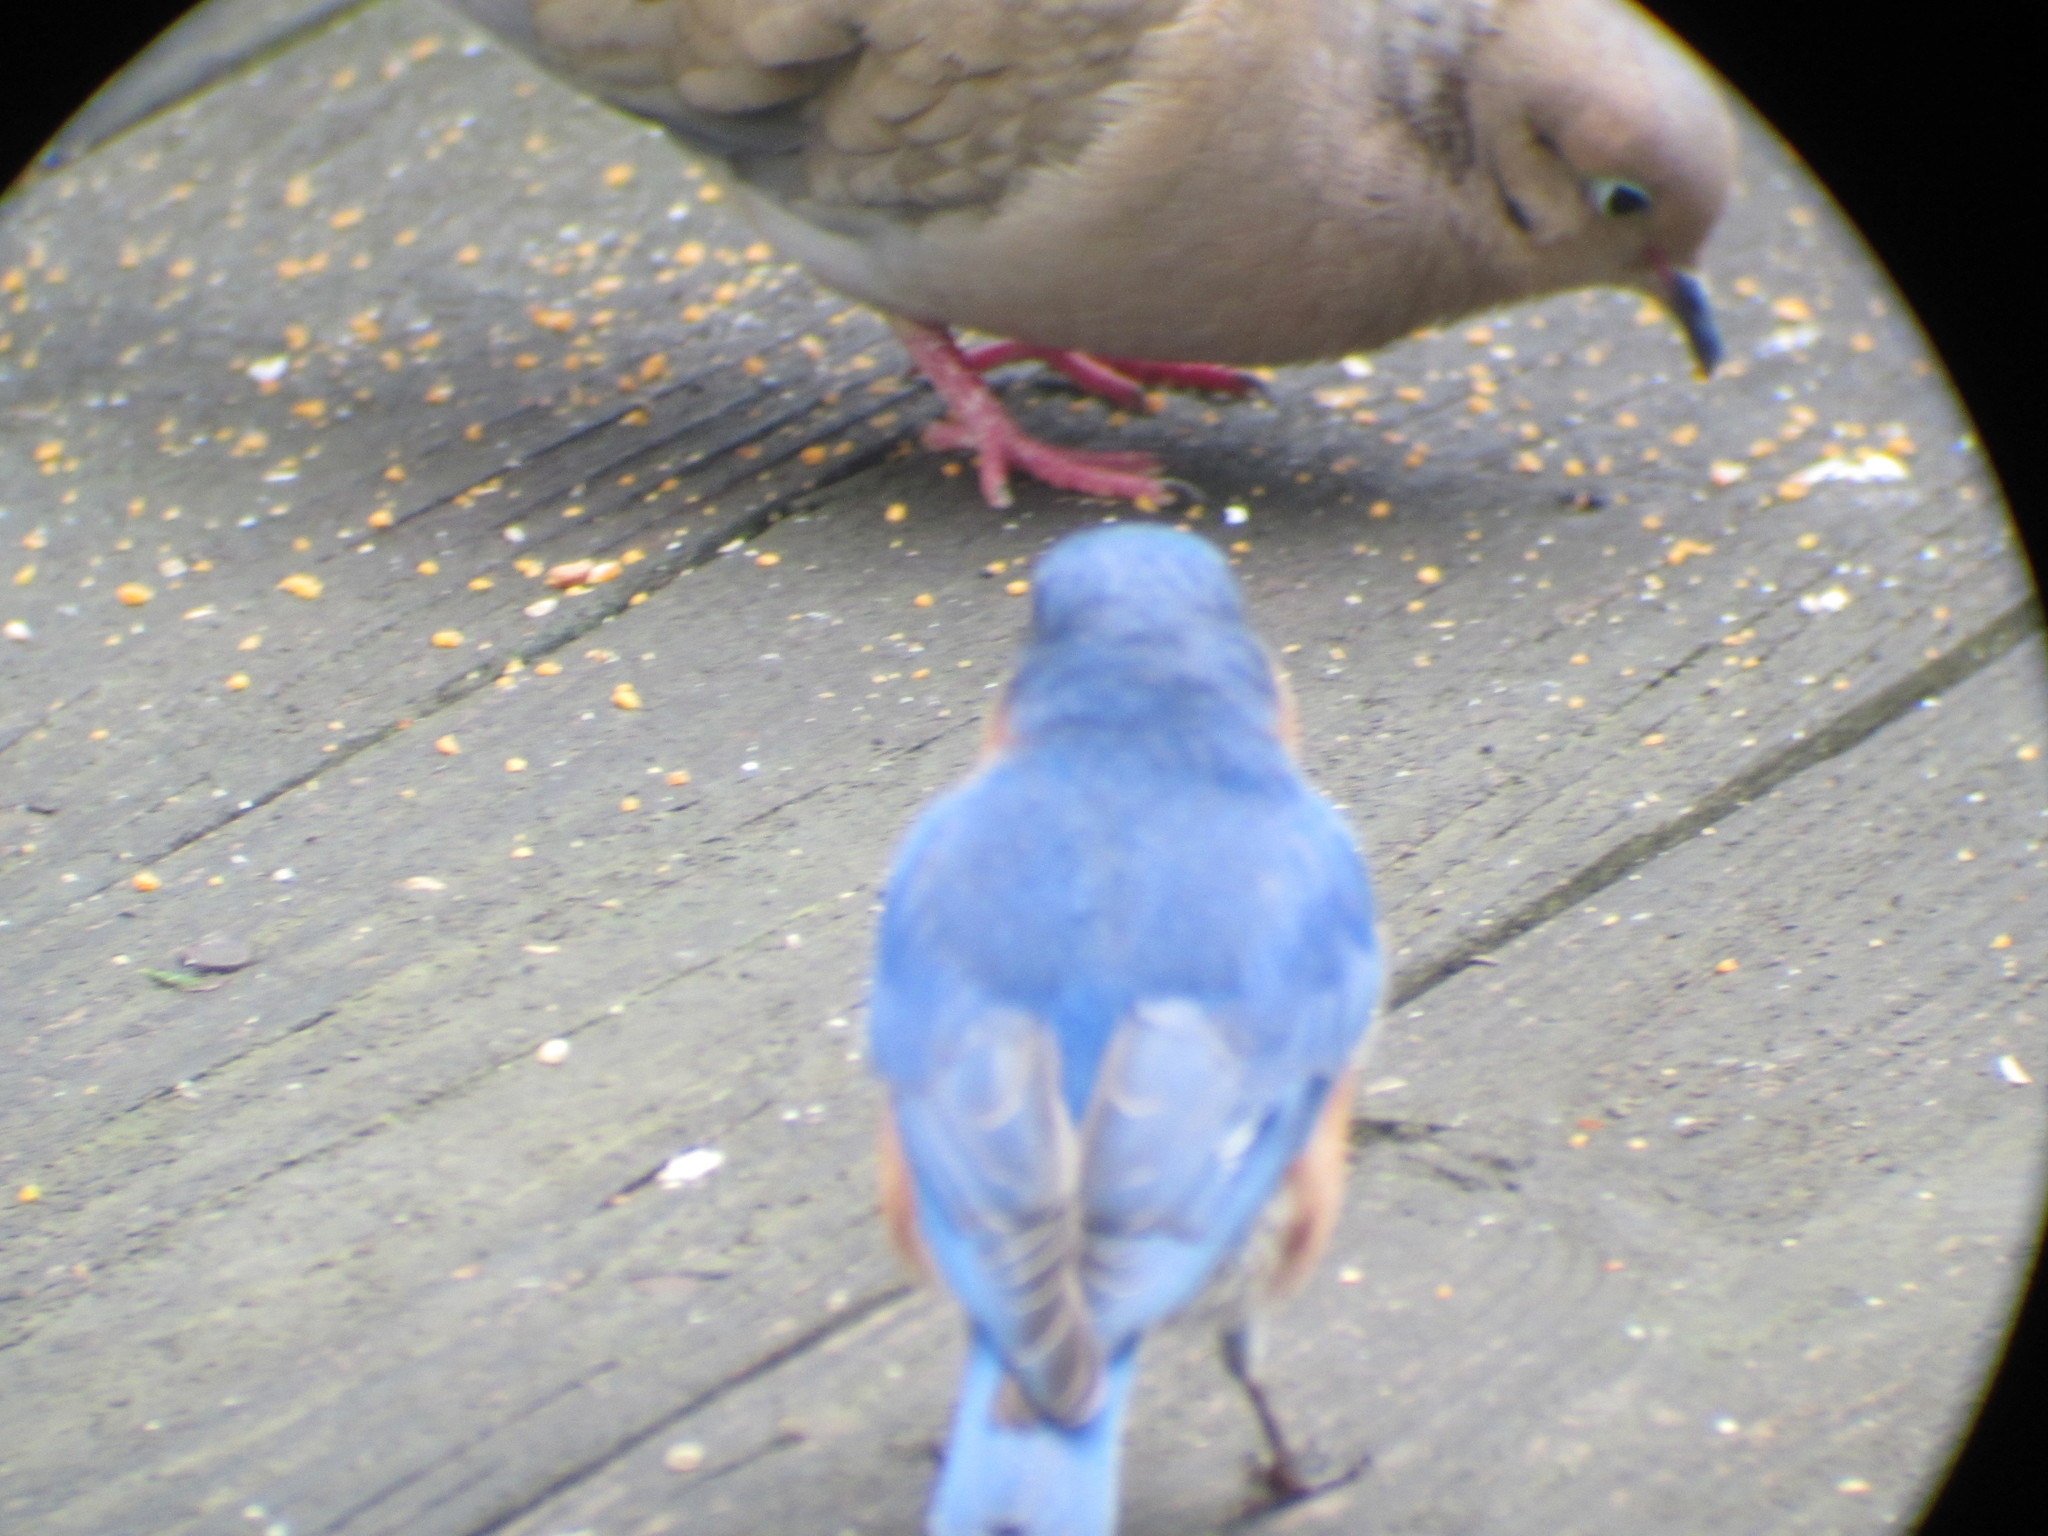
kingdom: Animalia
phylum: Chordata
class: Aves
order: Passeriformes
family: Turdidae
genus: Sialia
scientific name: Sialia sialis
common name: Eastern bluebird
